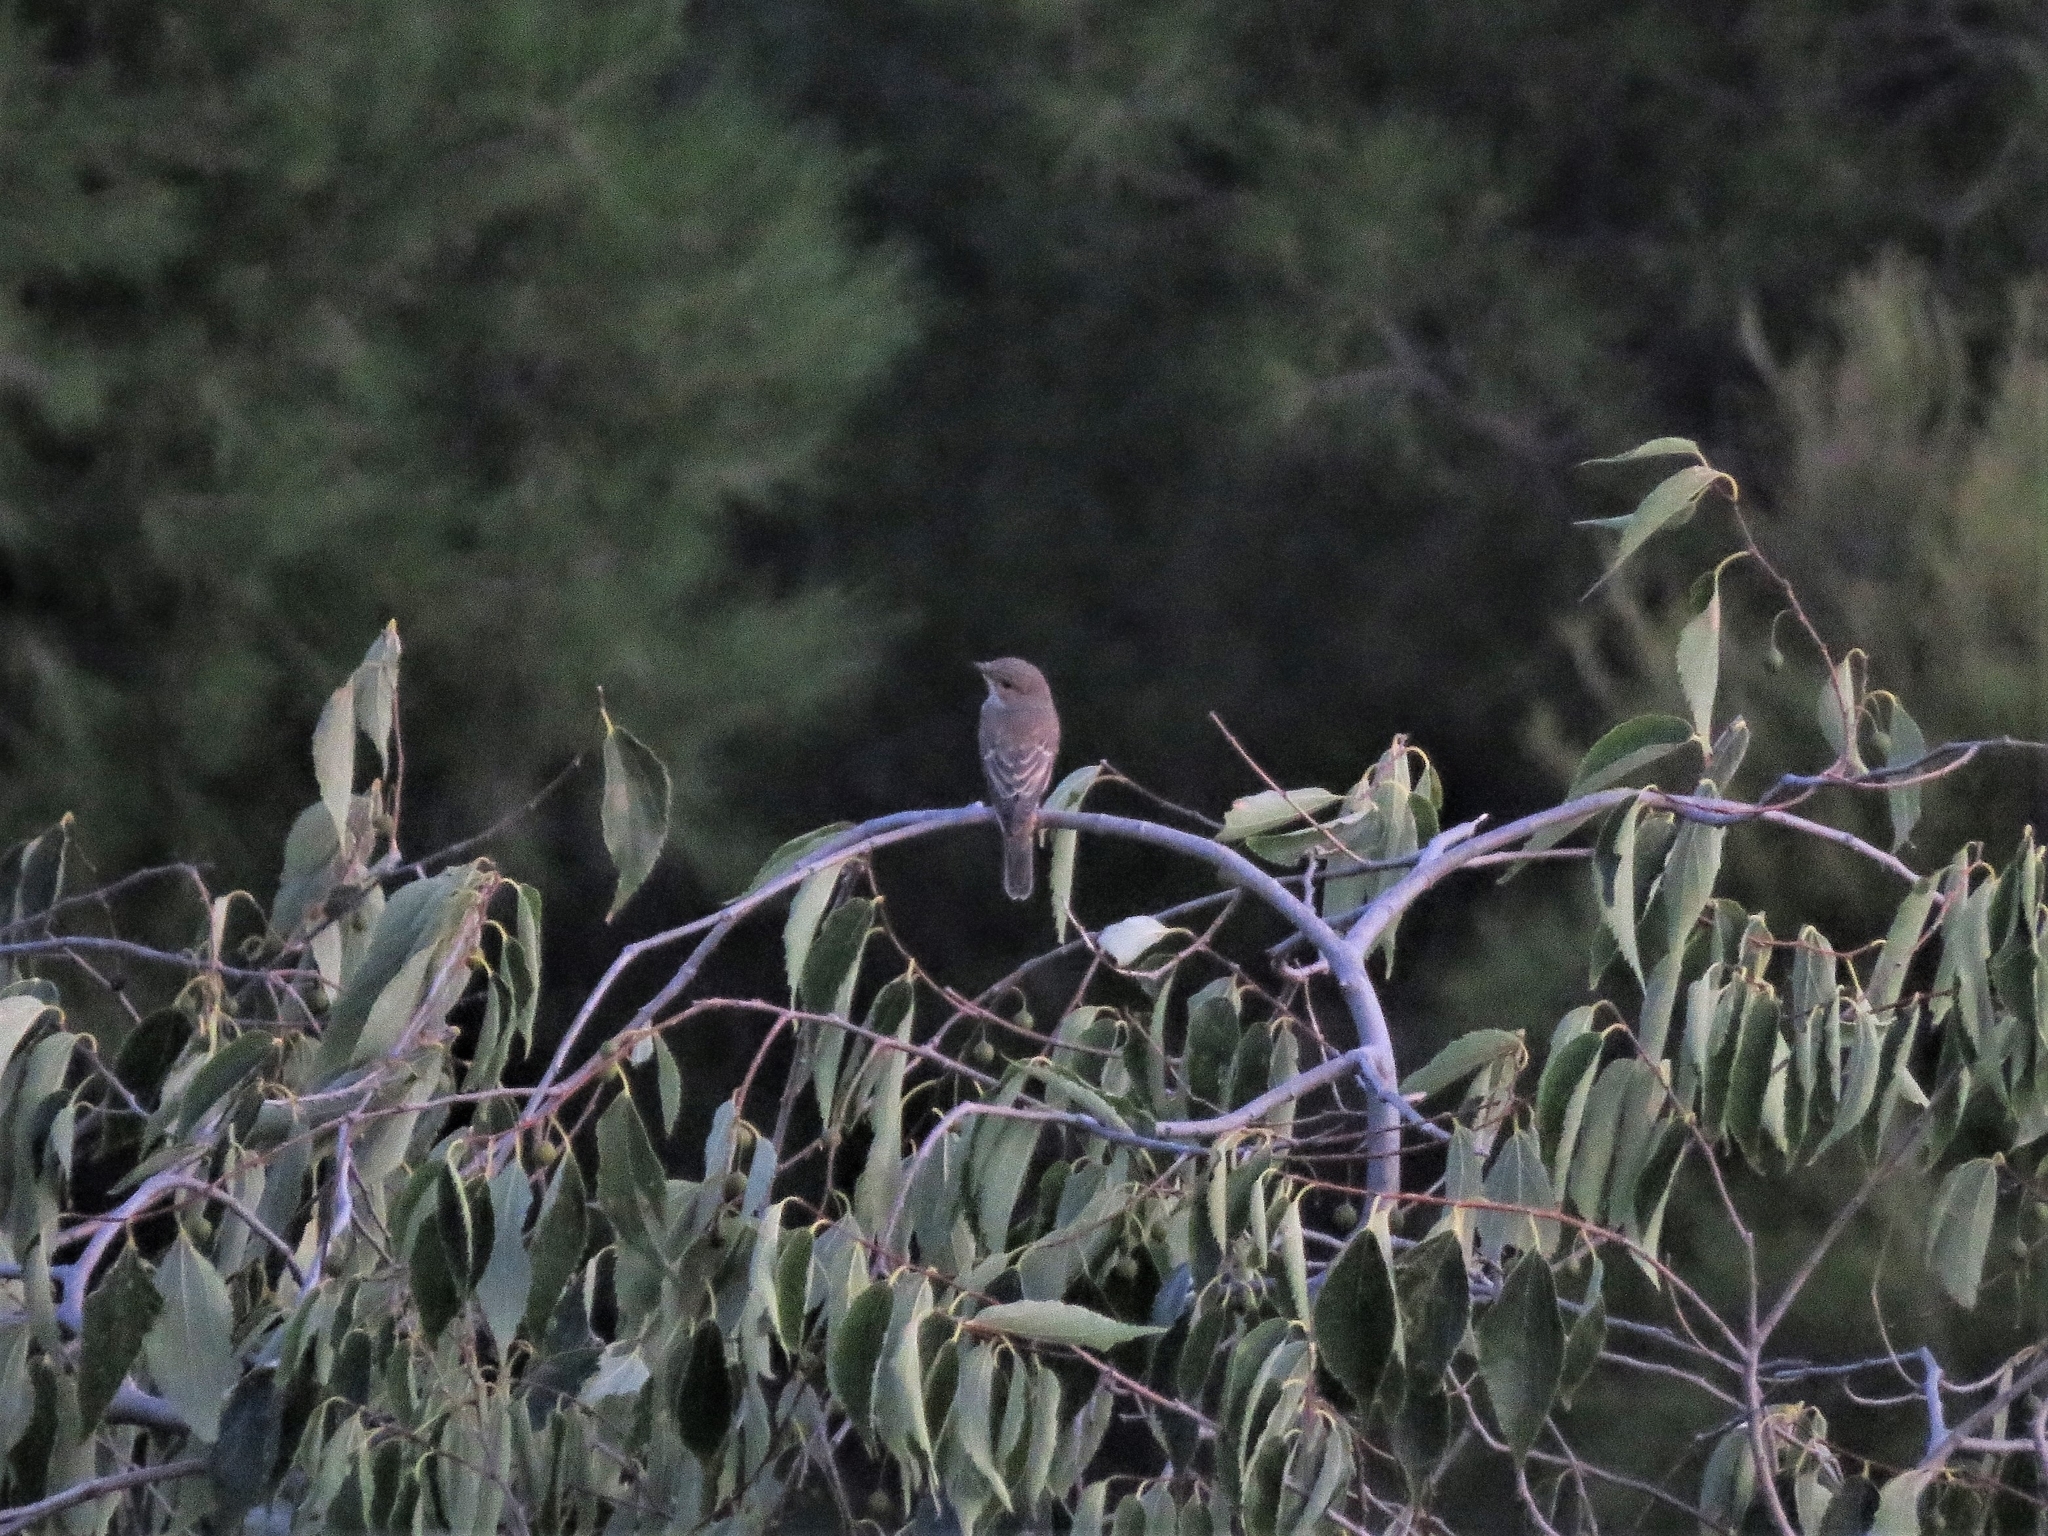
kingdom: Animalia
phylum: Chordata
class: Aves
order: Passeriformes
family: Muscicapidae
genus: Muscicapa
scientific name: Muscicapa striata
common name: Spotted flycatcher
